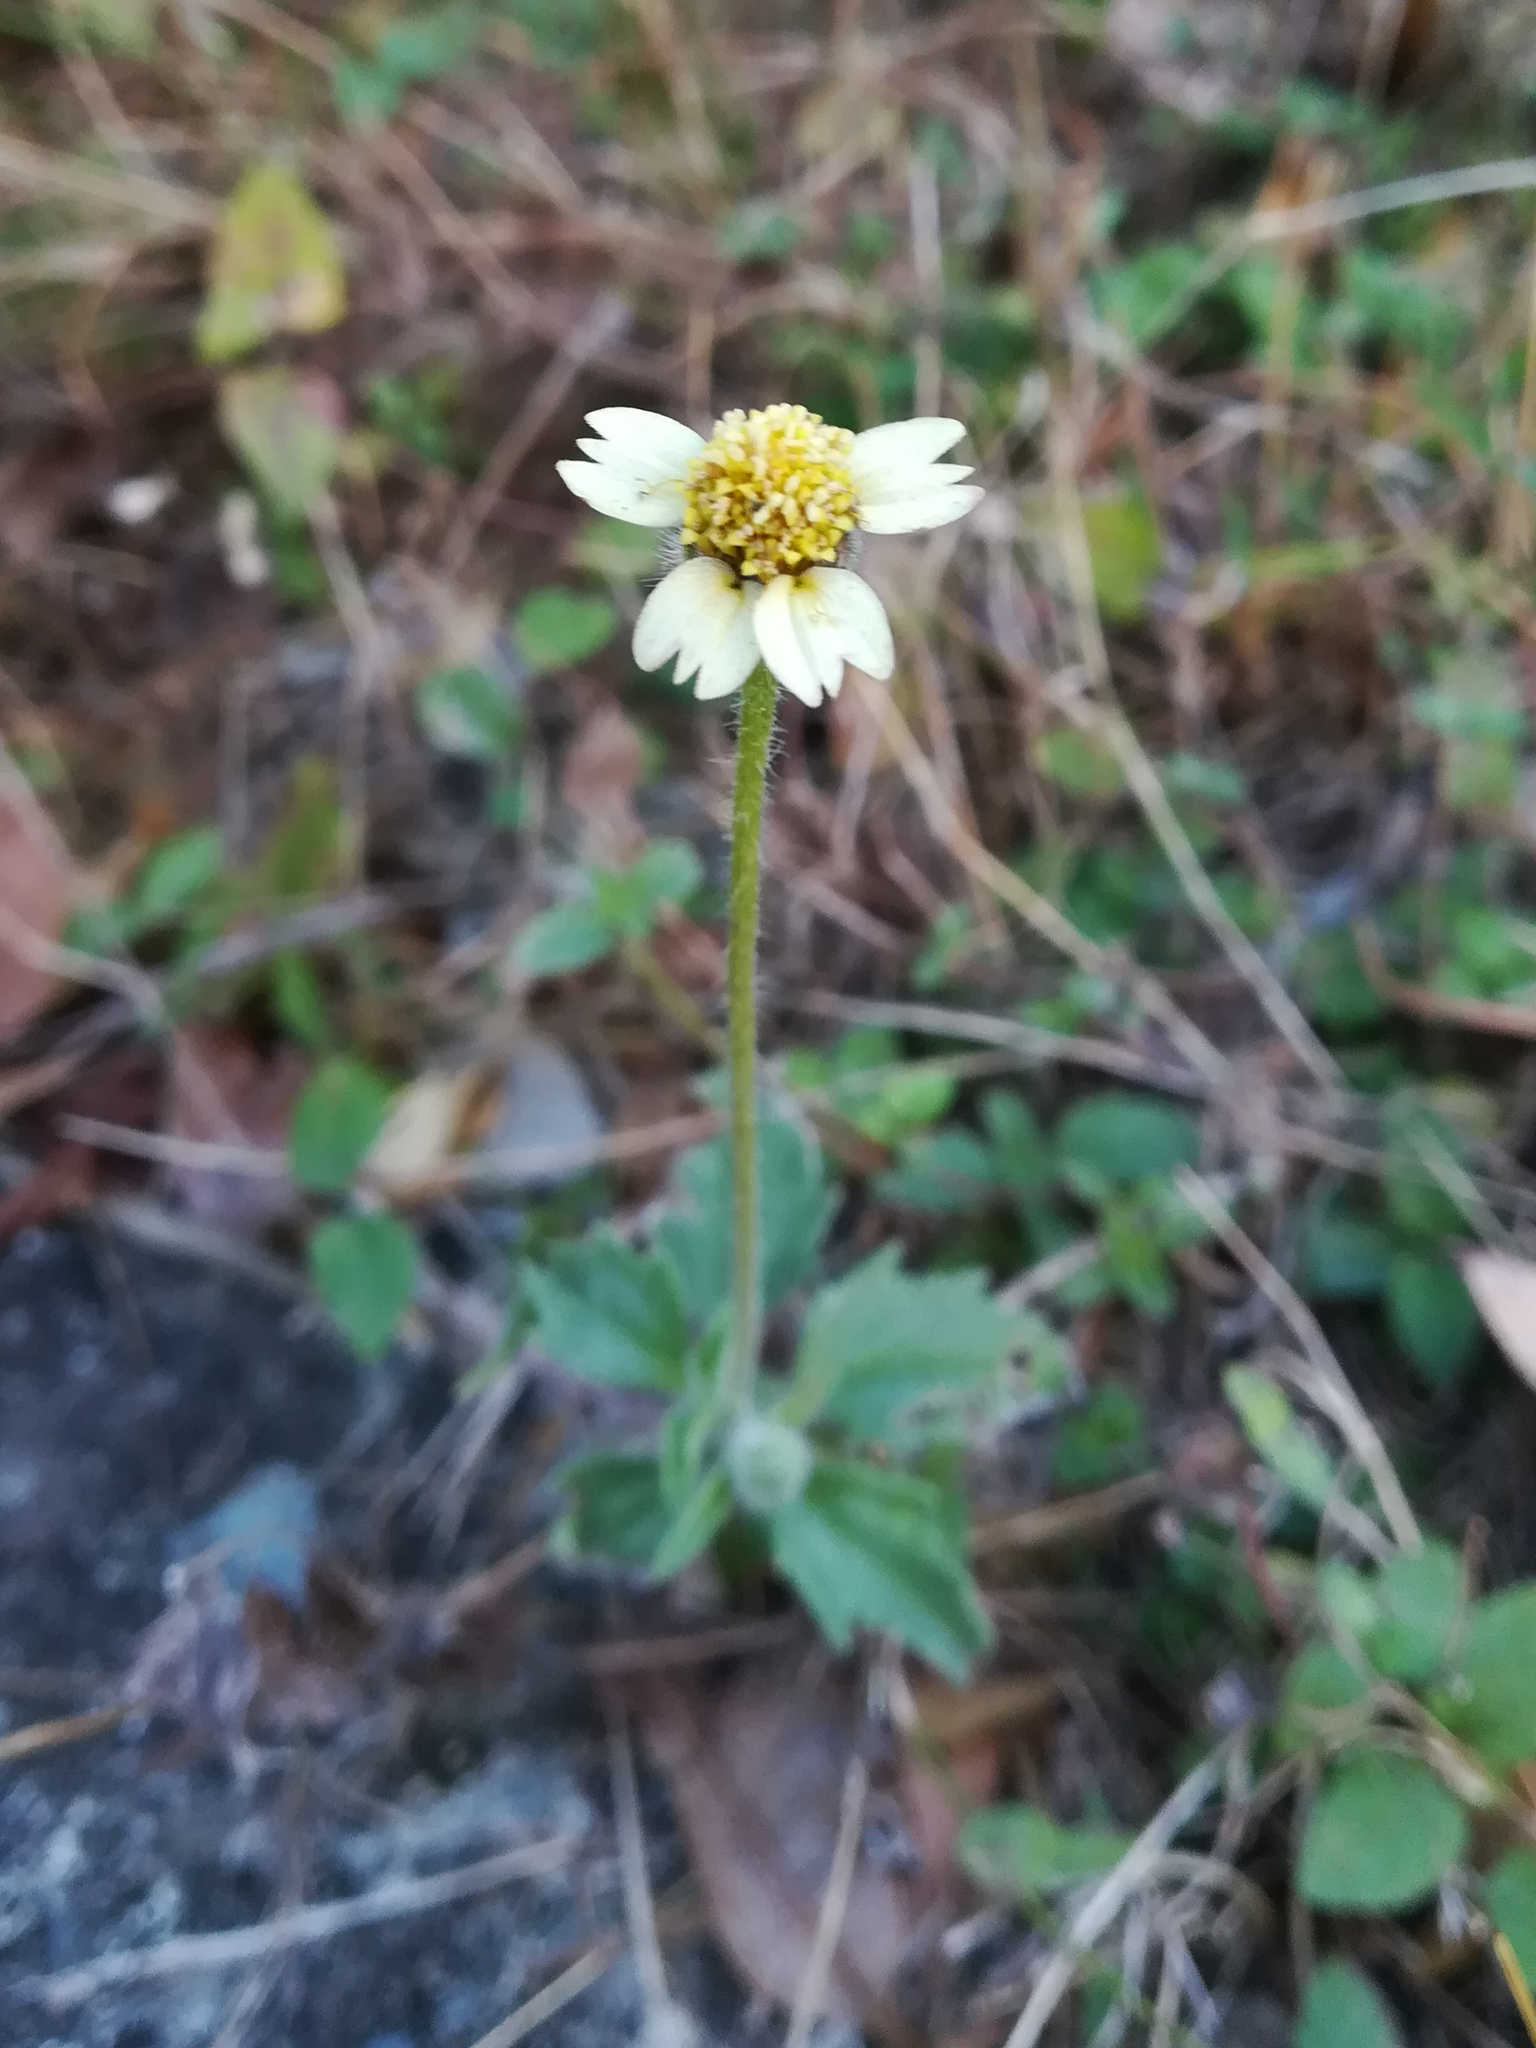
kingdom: Plantae
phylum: Tracheophyta
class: Magnoliopsida
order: Asterales
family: Asteraceae
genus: Tridax
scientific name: Tridax procumbens
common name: Coatbuttons
